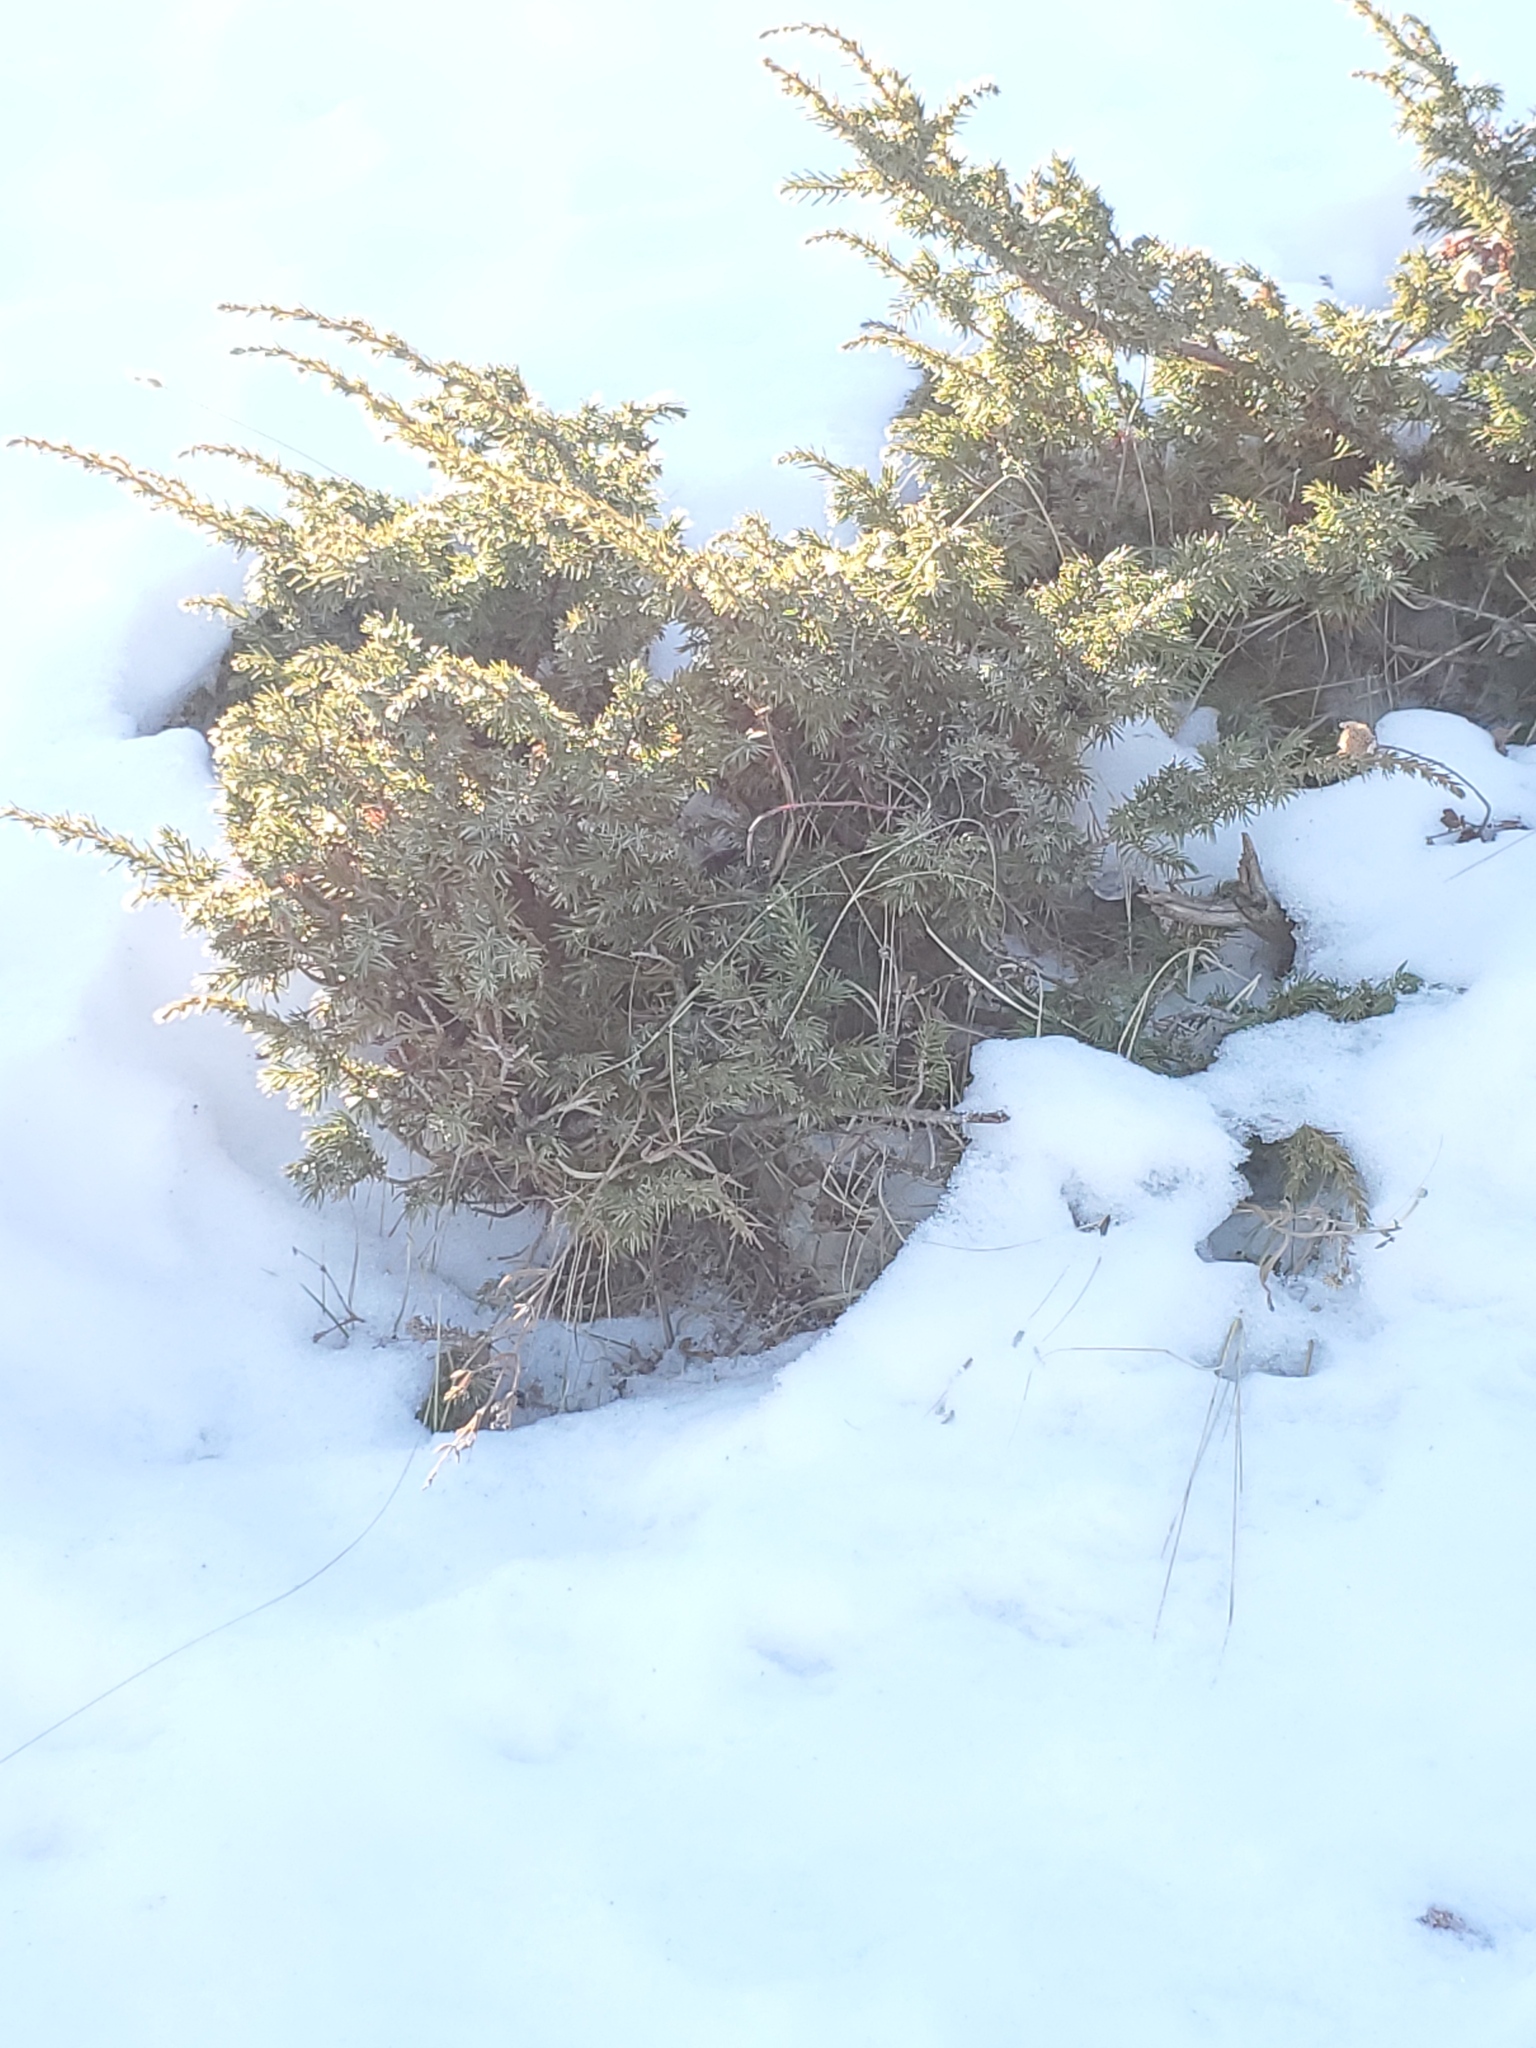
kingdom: Plantae
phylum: Tracheophyta
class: Pinopsida
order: Pinales
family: Cupressaceae
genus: Juniperus
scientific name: Juniperus communis
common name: Common juniper
